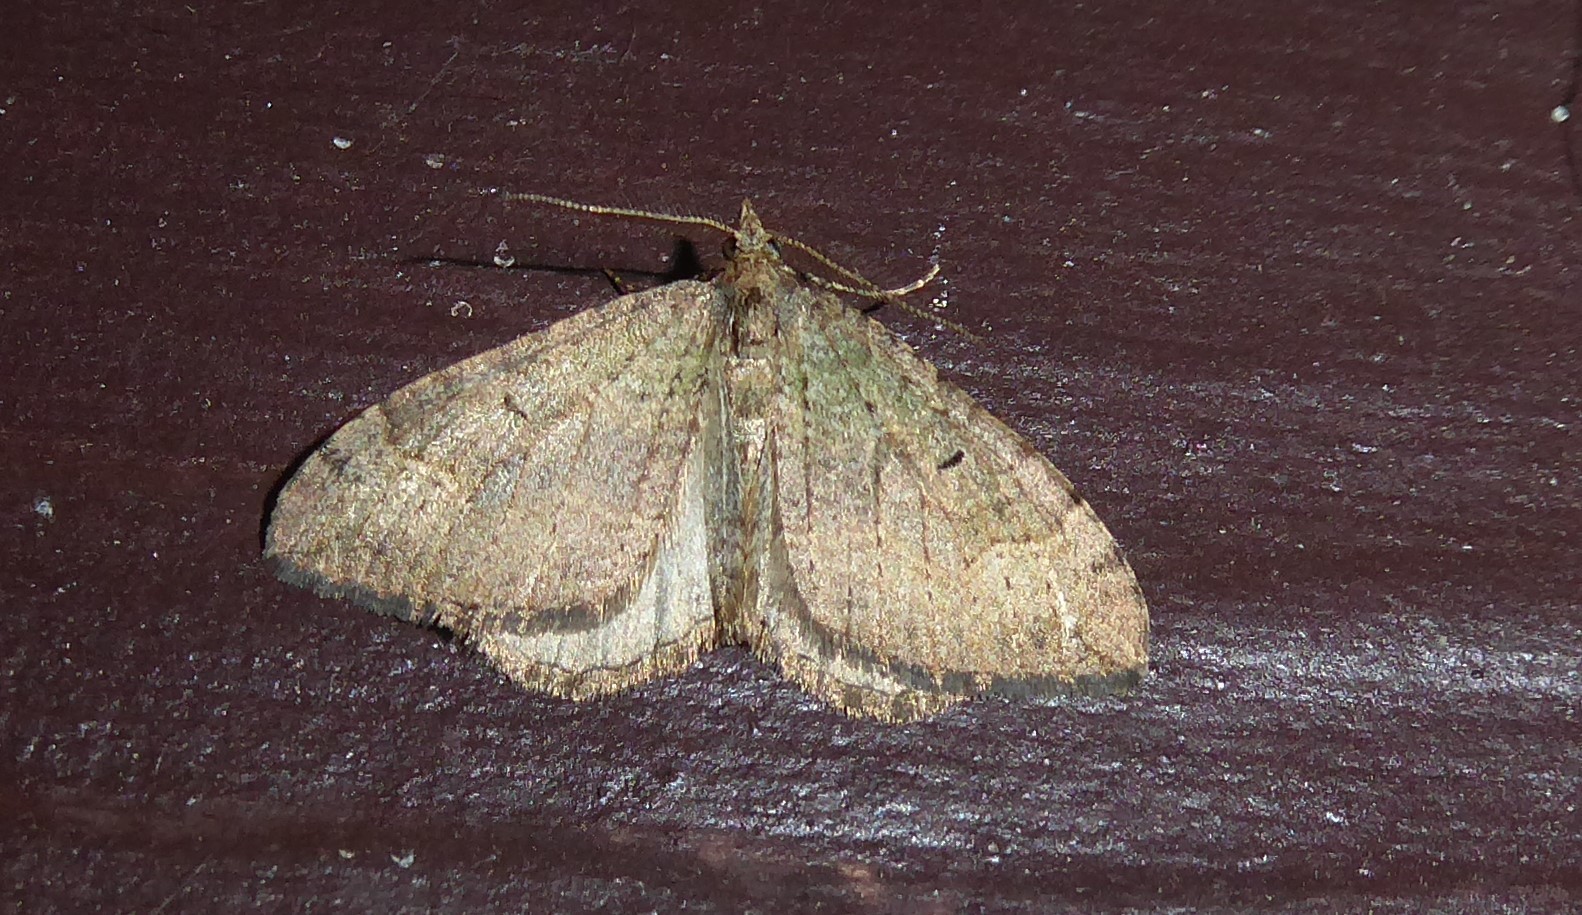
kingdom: Animalia
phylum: Arthropoda
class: Insecta
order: Lepidoptera
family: Geometridae
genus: Epyaxa
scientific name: Epyaxa rosearia
